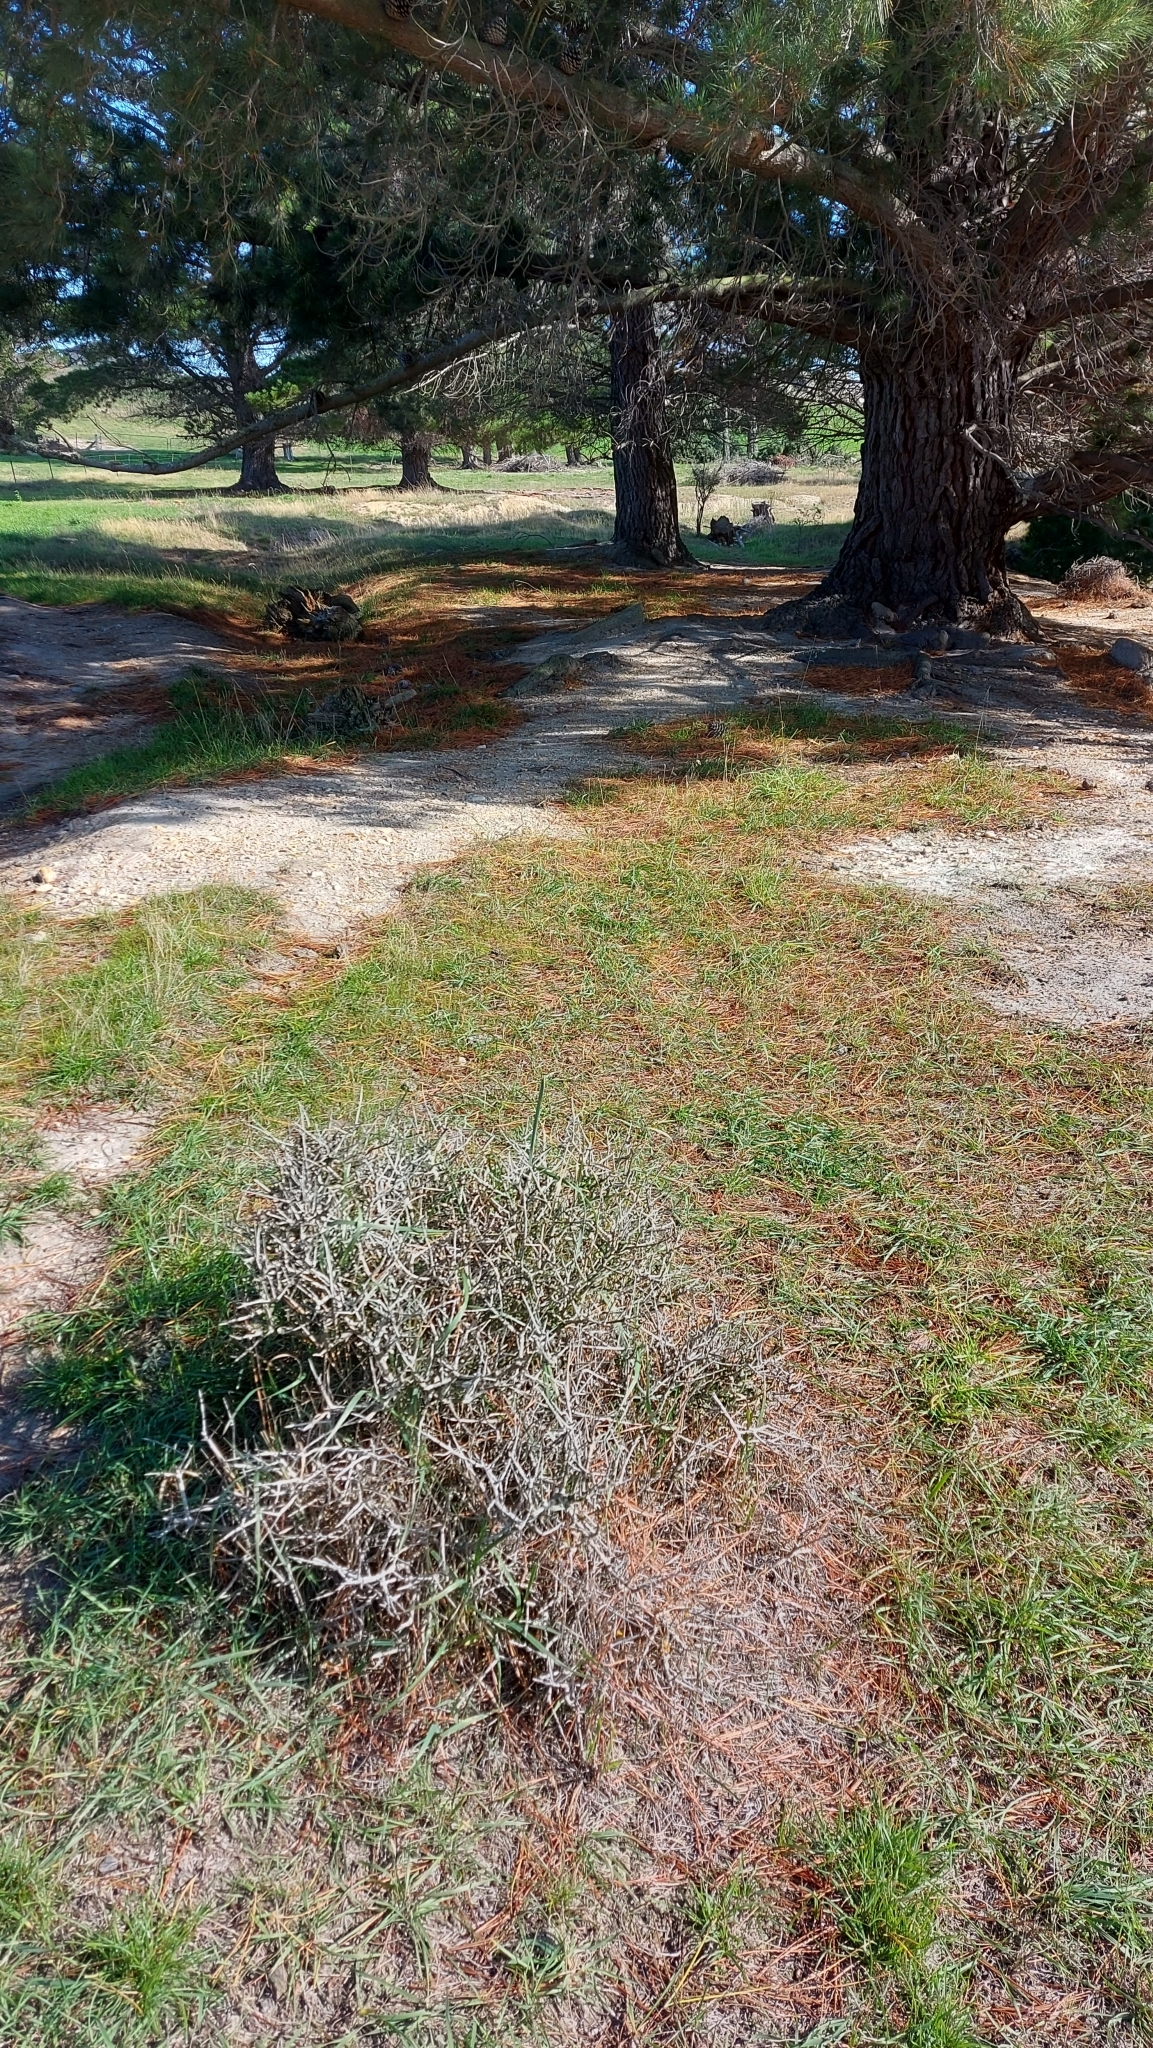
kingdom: Plantae
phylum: Tracheophyta
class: Magnoliopsida
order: Malpighiales
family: Violaceae
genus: Melicytus
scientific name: Melicytus alpinus
